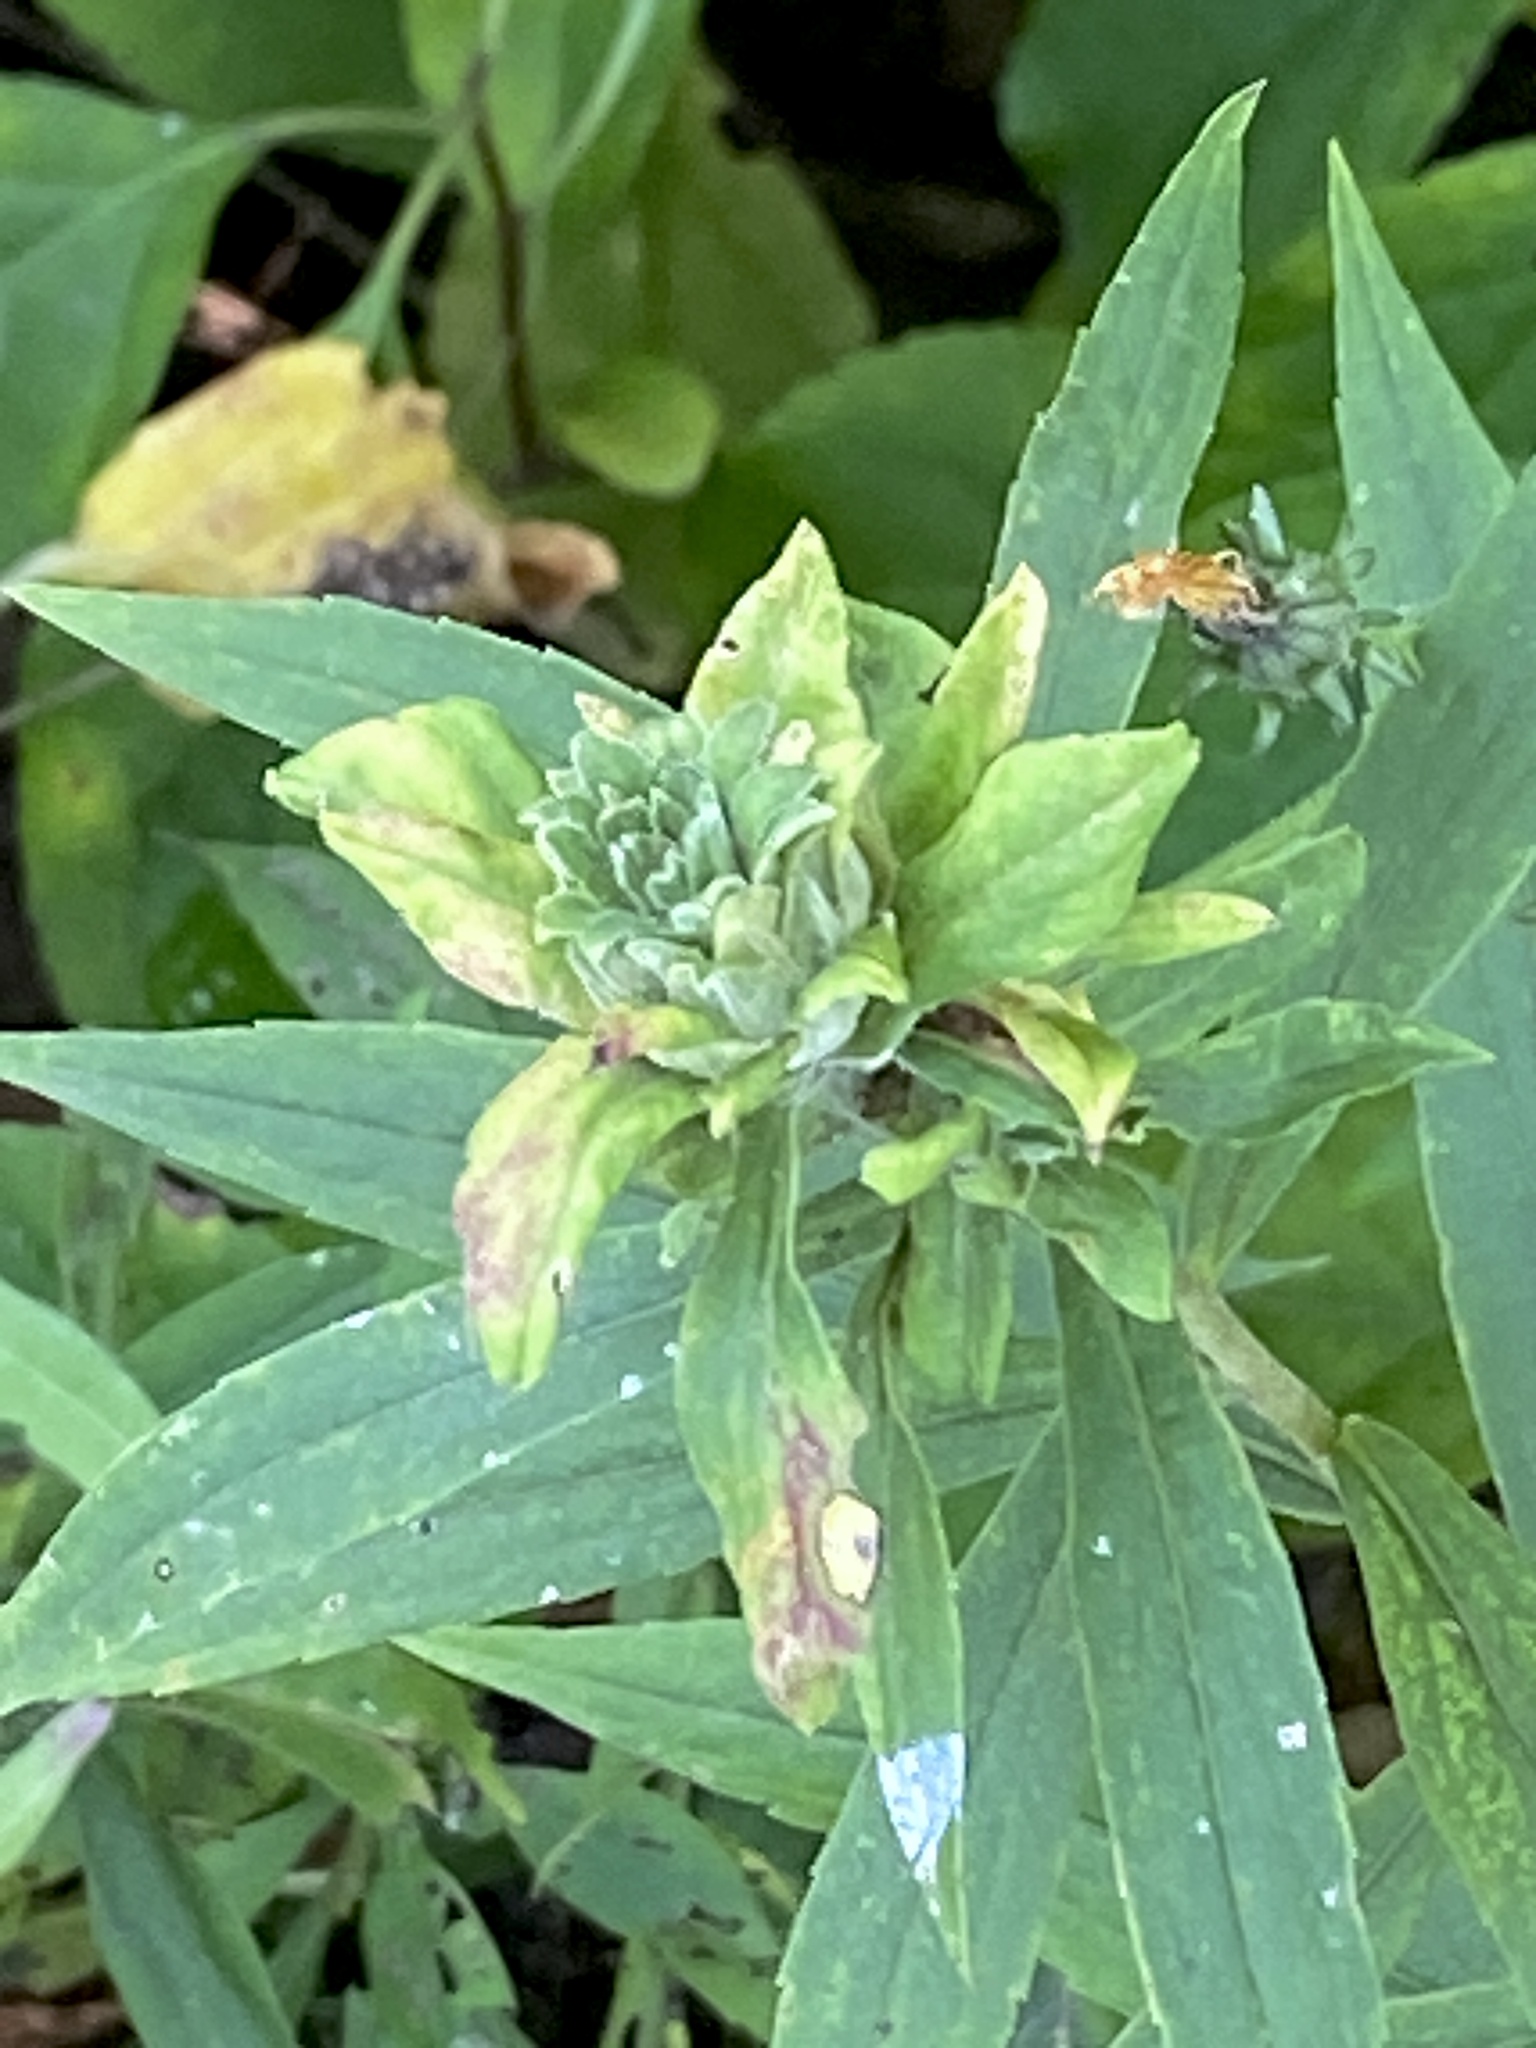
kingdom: Animalia
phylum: Arthropoda
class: Insecta
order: Diptera
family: Tephritidae
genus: Procecidochares
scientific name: Procecidochares atra
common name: Goldenrod brussels sprout gall fly
